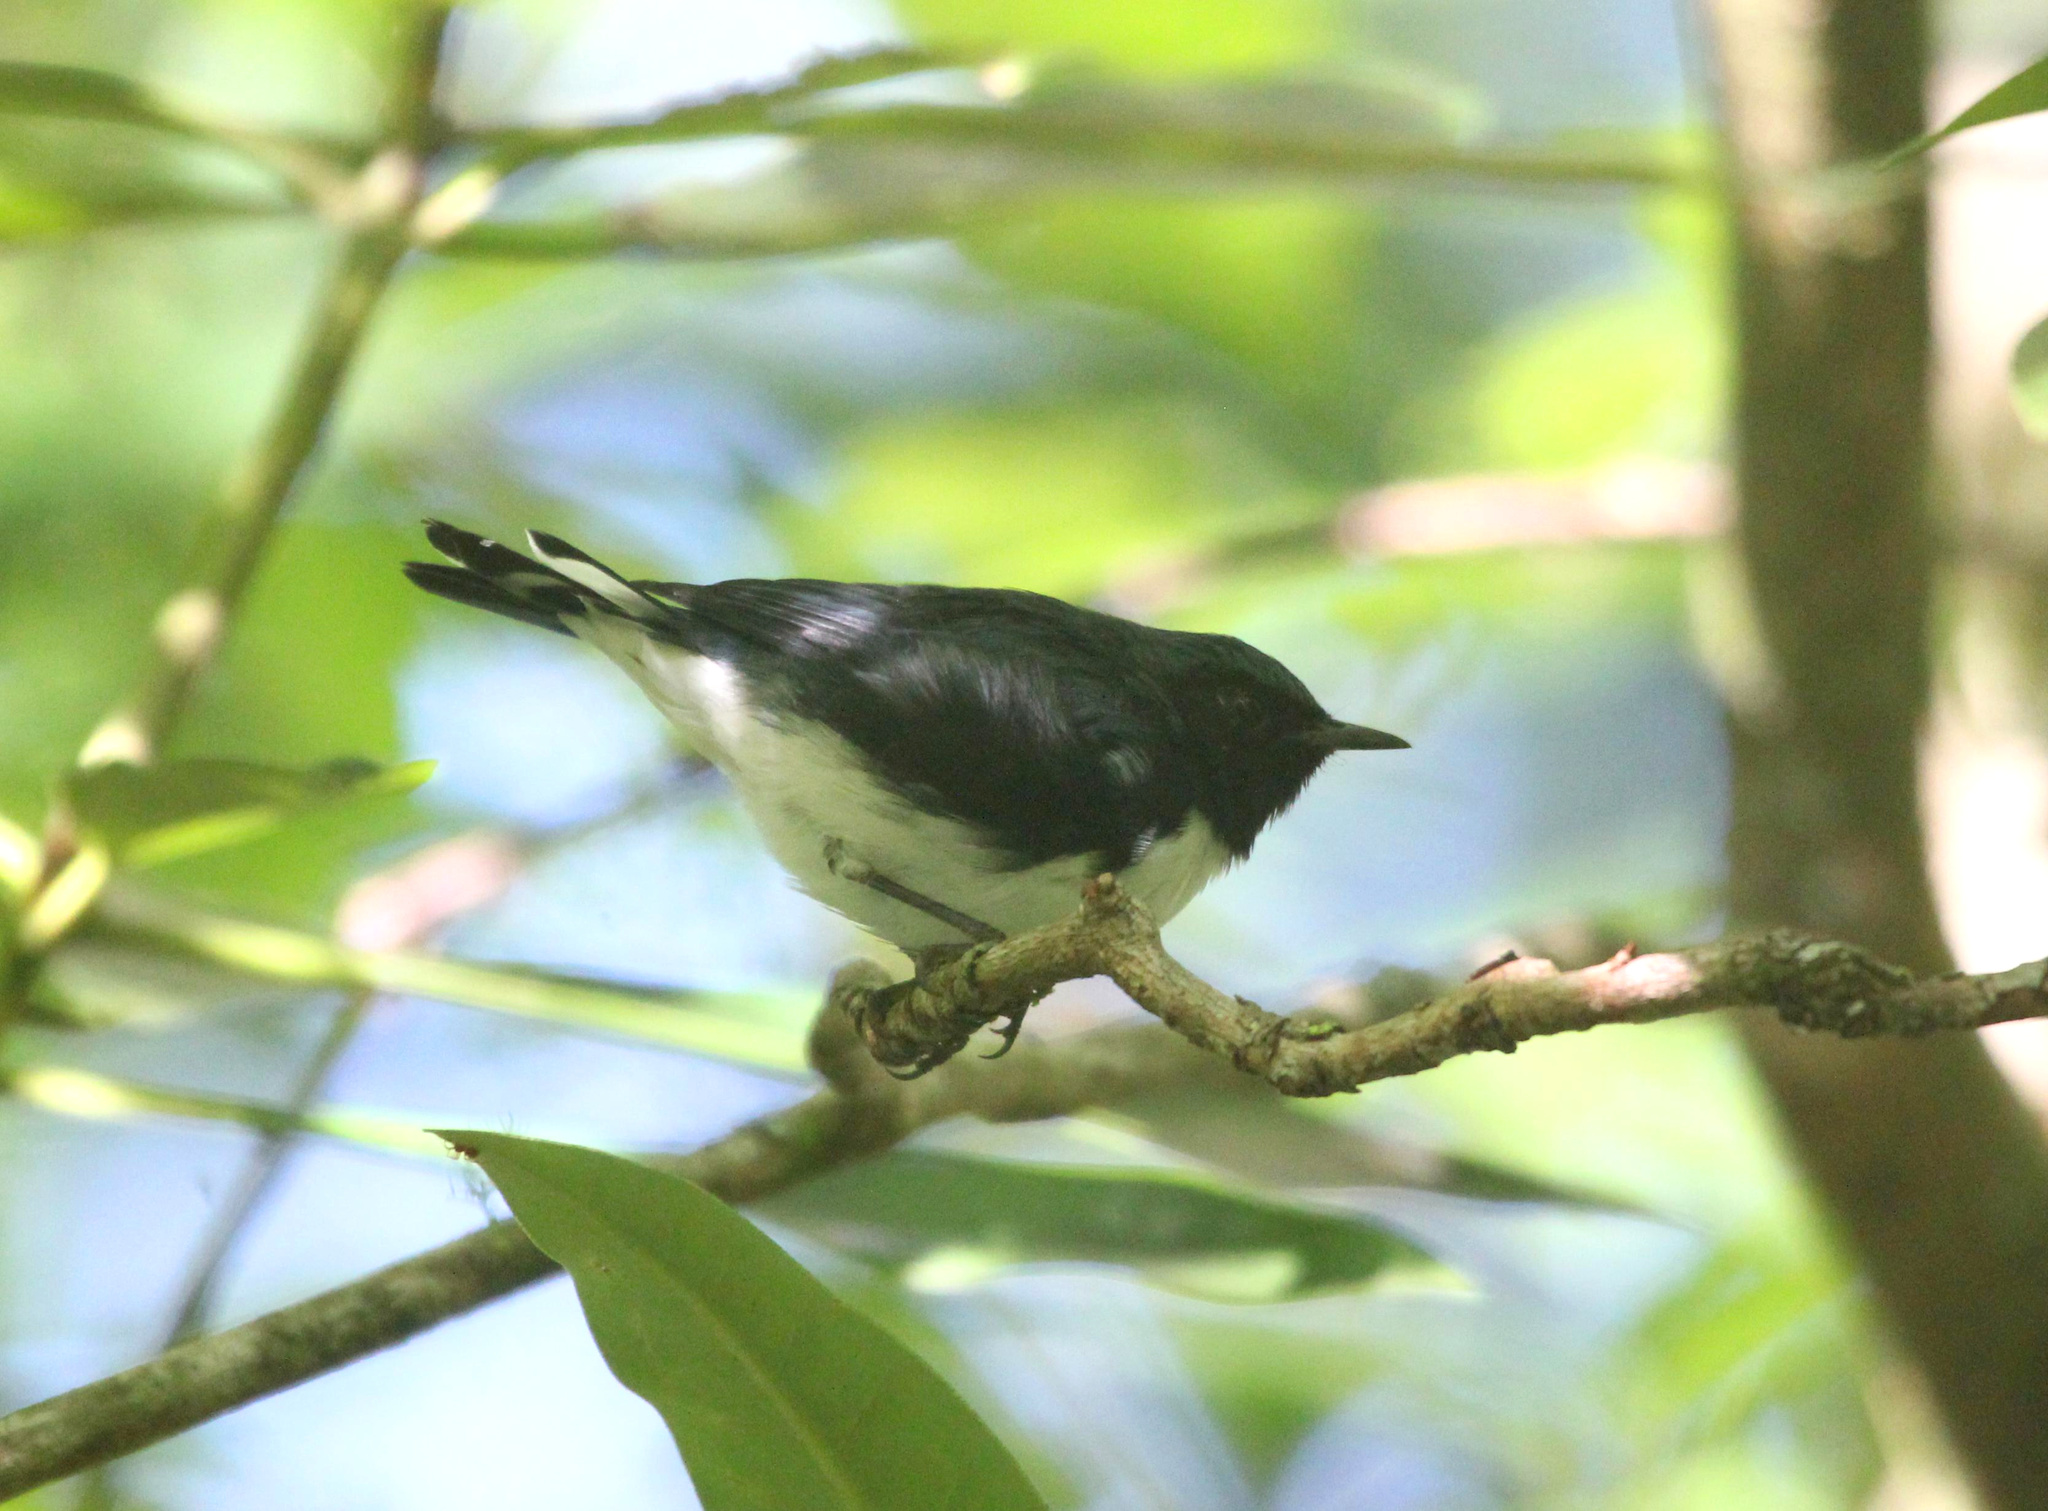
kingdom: Animalia
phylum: Chordata
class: Aves
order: Passeriformes
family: Parulidae
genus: Setophaga
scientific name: Setophaga caerulescens
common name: Black-throated blue warbler
